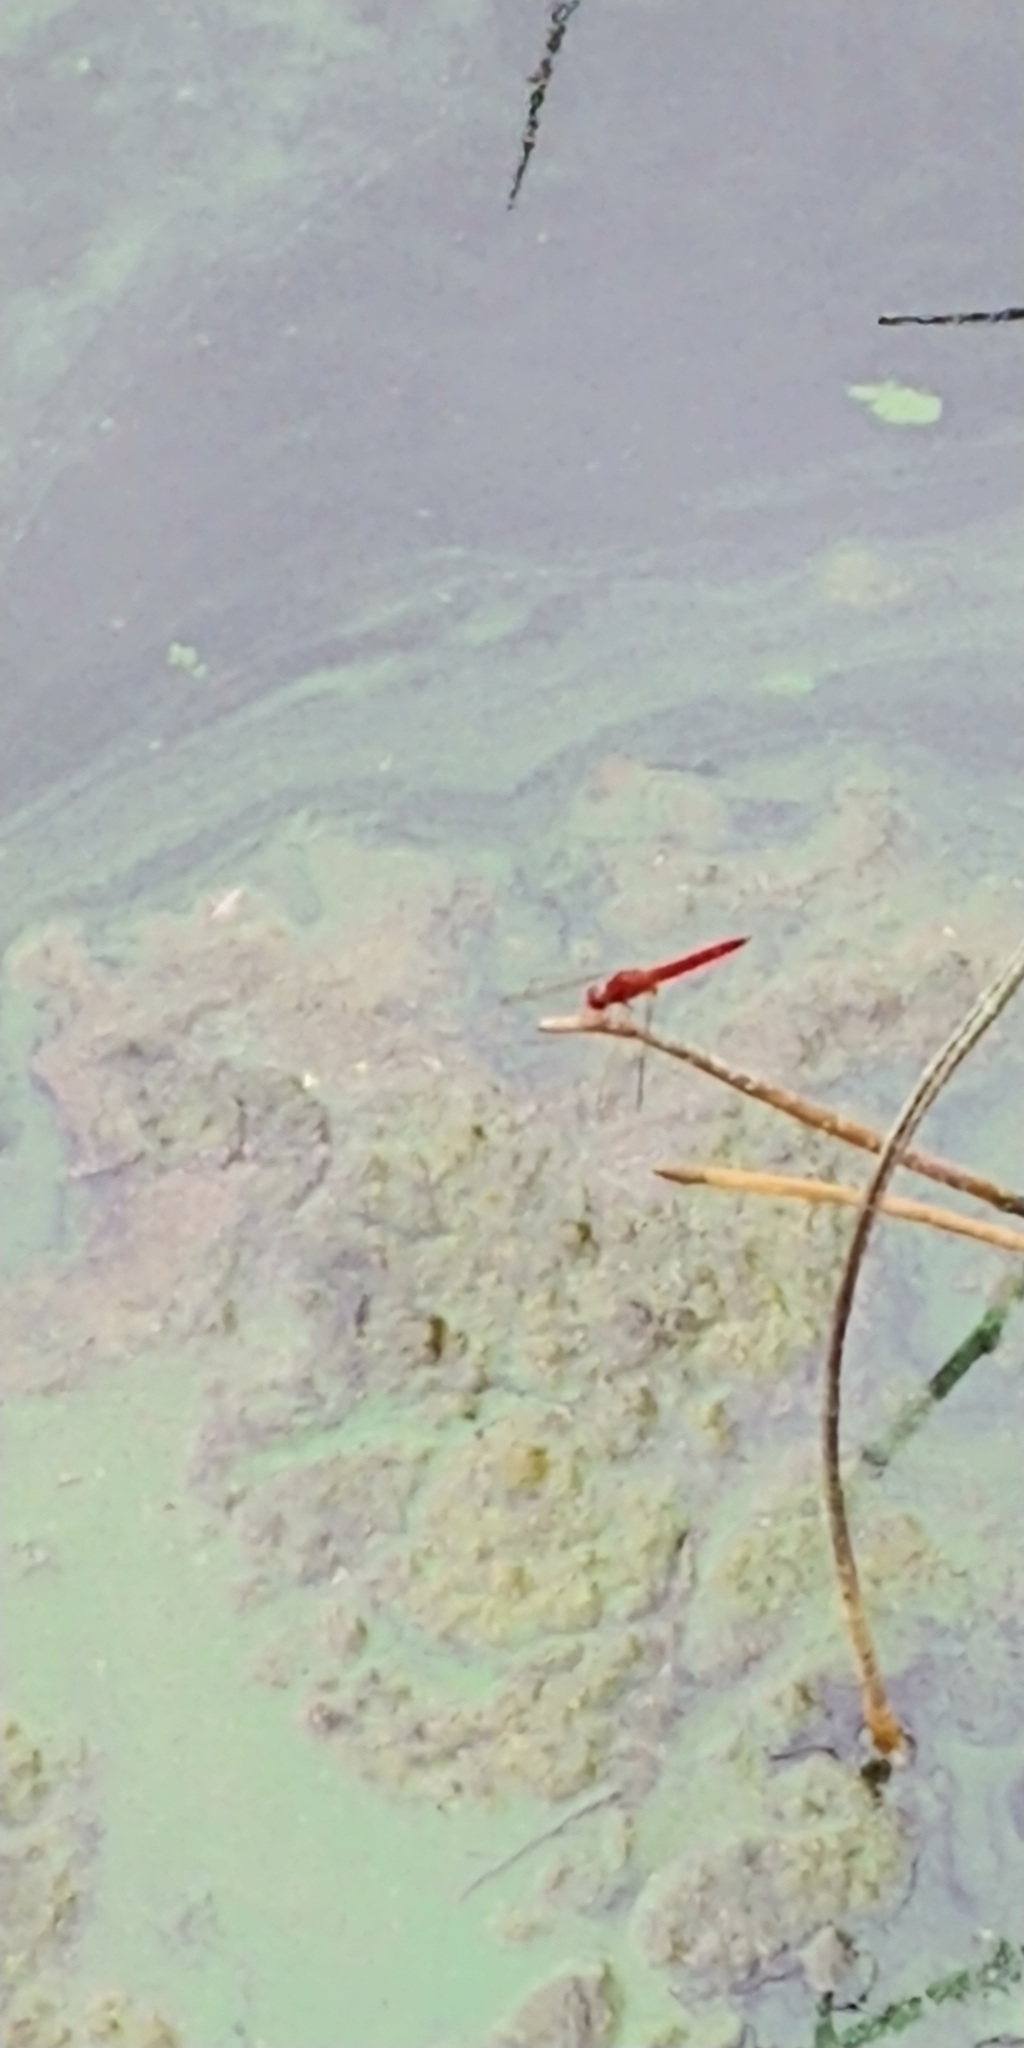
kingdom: Animalia
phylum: Arthropoda
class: Insecta
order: Odonata
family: Libellulidae
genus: Crocothemis
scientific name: Crocothemis servilia
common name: Scarlet skimmer
